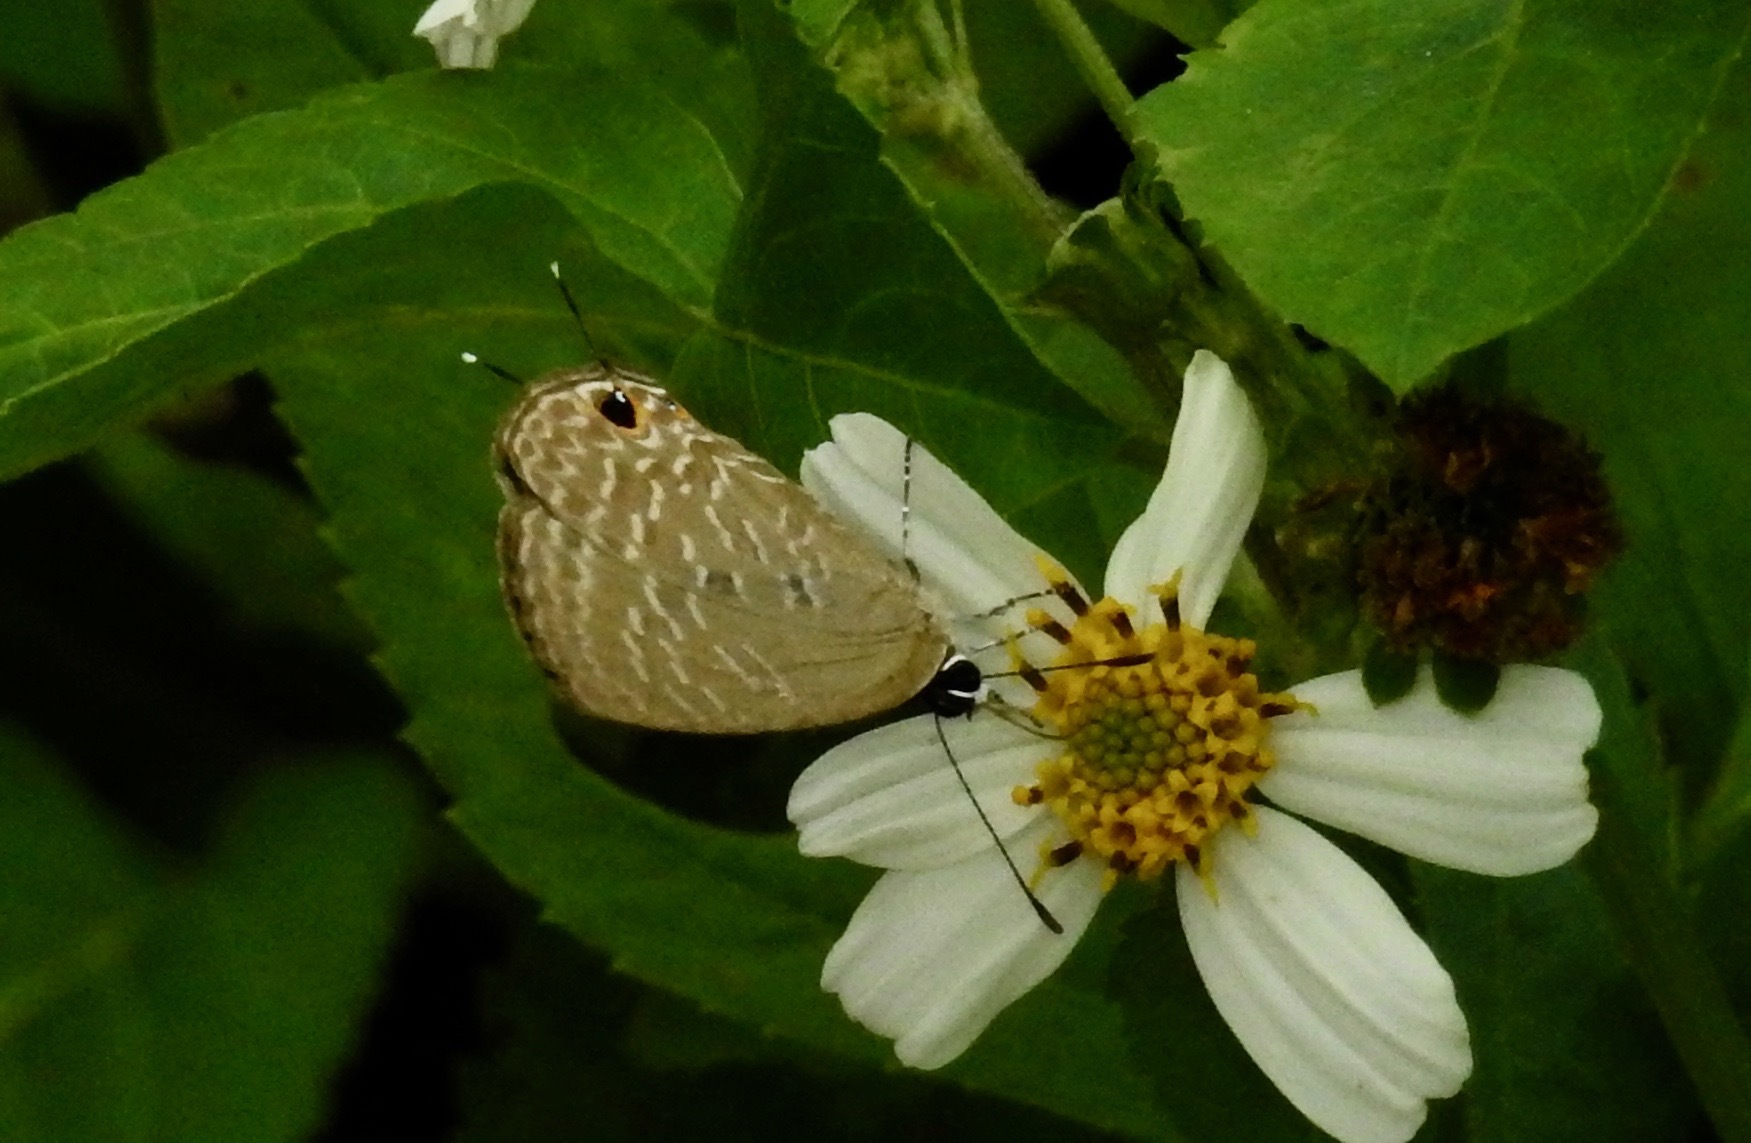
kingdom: Animalia
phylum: Arthropoda
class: Insecta
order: Lepidoptera
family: Lycaenidae
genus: Jamides
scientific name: Jamides bochus
